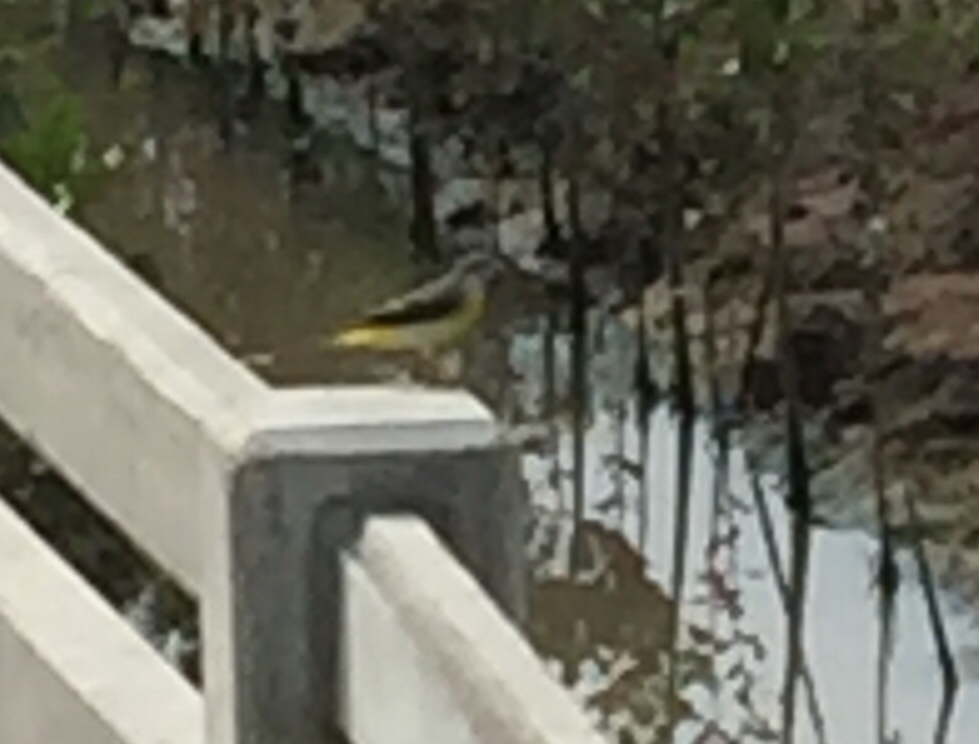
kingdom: Animalia
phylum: Chordata
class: Aves
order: Passeriformes
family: Motacillidae
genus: Motacilla
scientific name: Motacilla cinerea
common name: Grey wagtail
